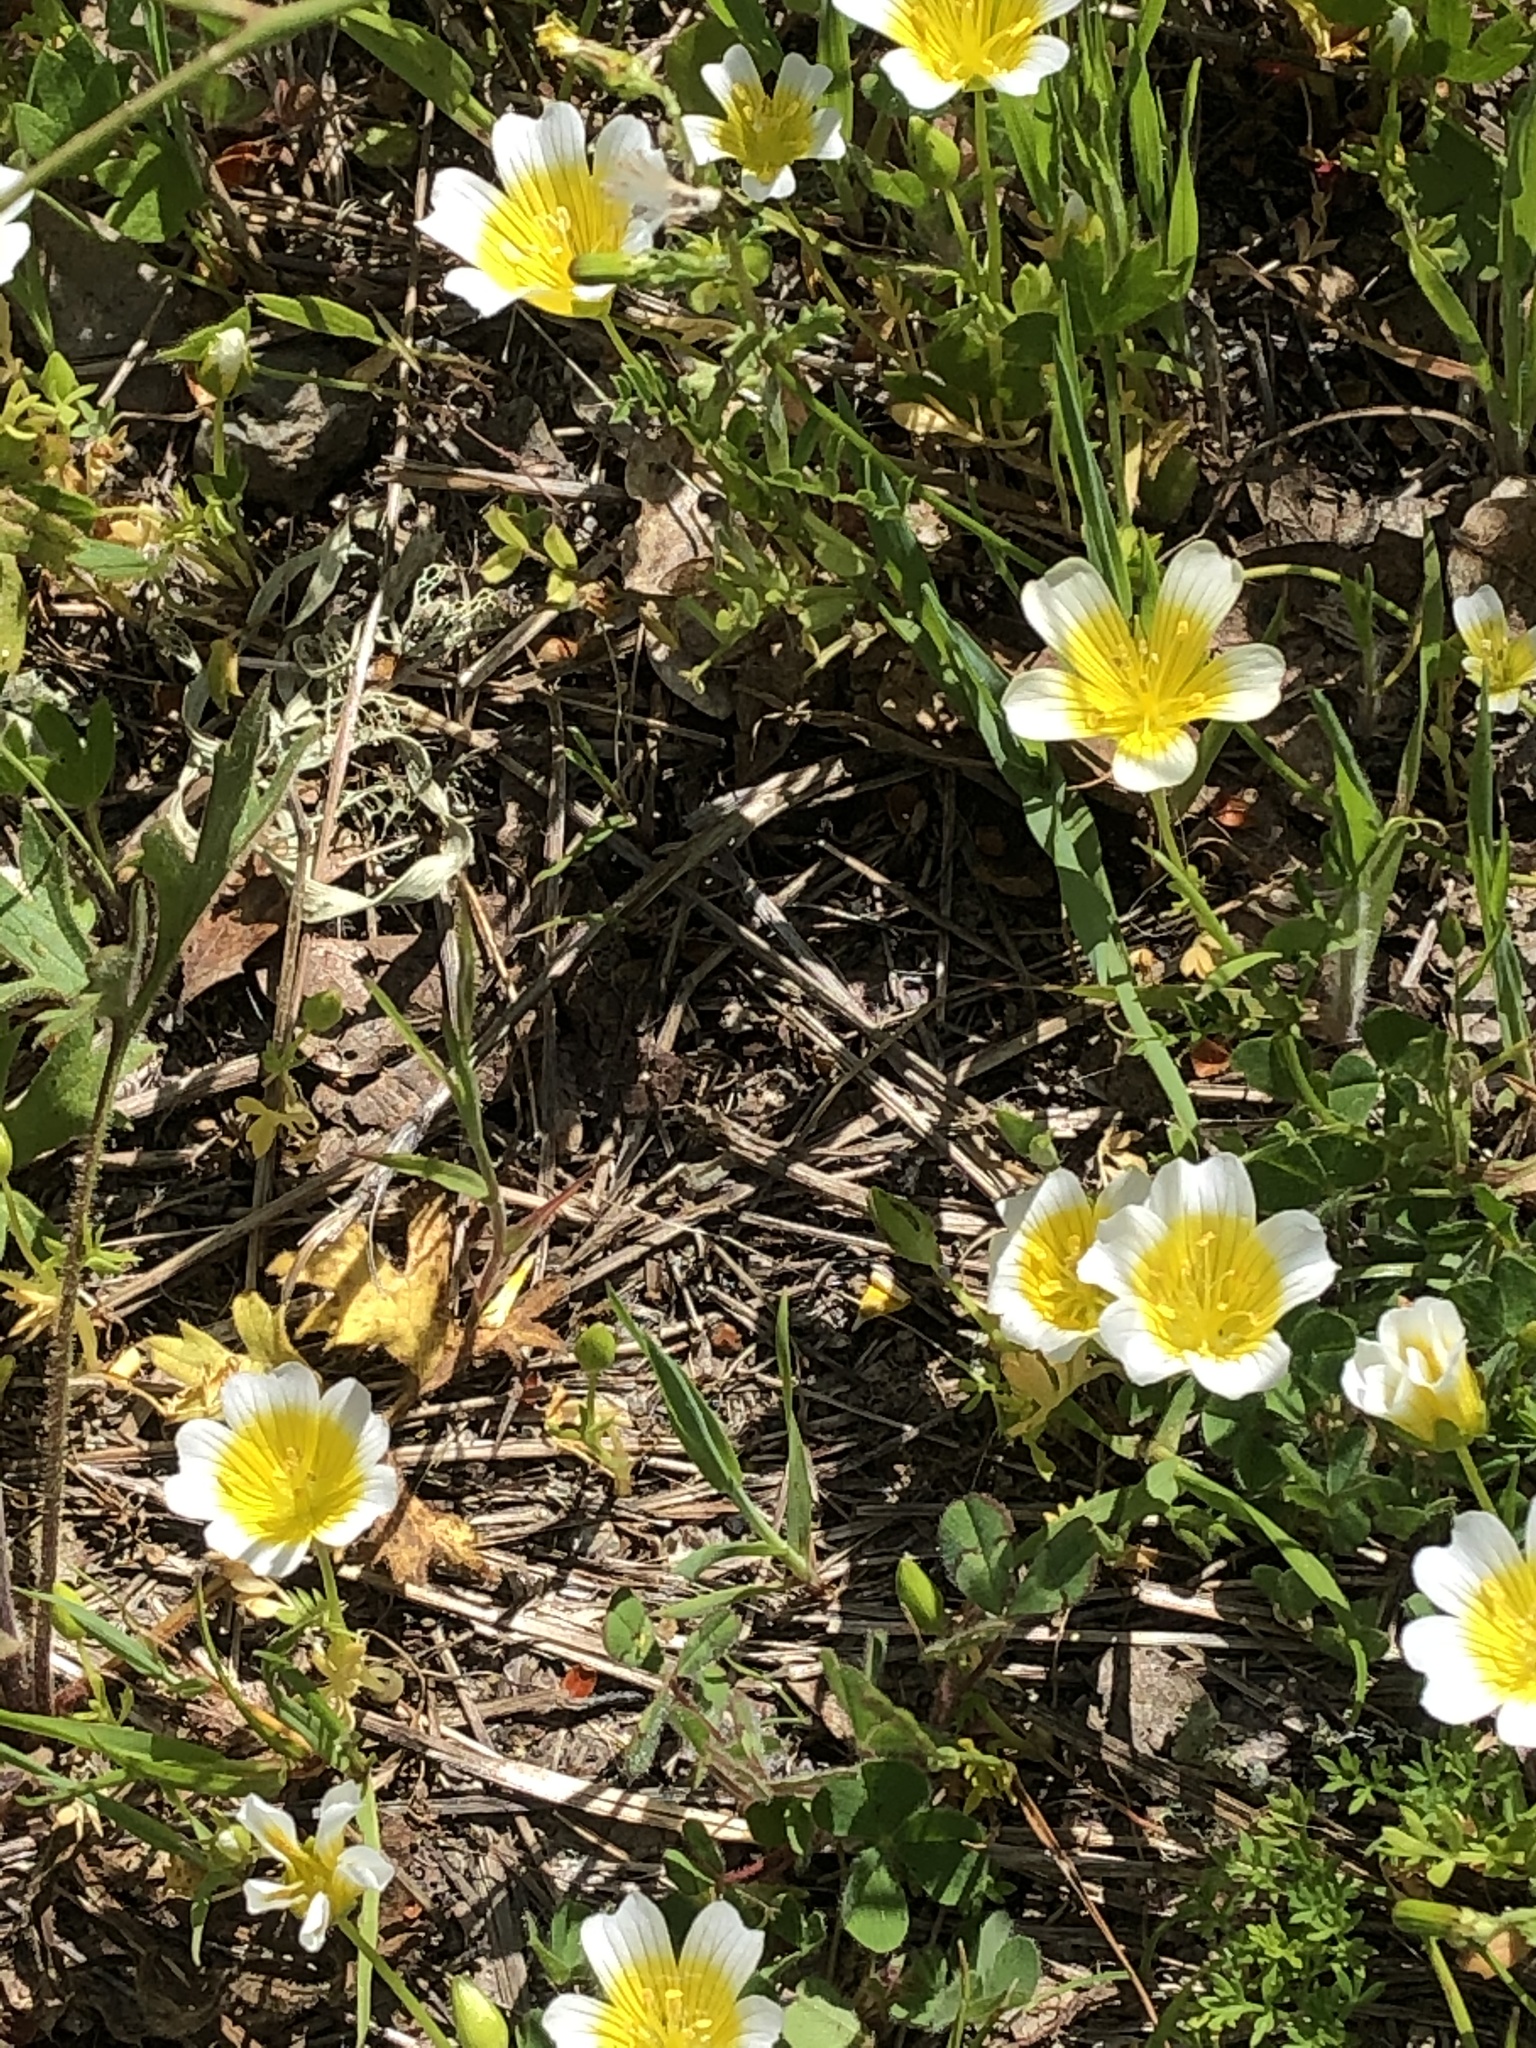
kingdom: Plantae
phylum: Tracheophyta
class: Magnoliopsida
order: Brassicales
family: Limnanthaceae
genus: Limnanthes
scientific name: Limnanthes douglasii
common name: Meadow-foam
